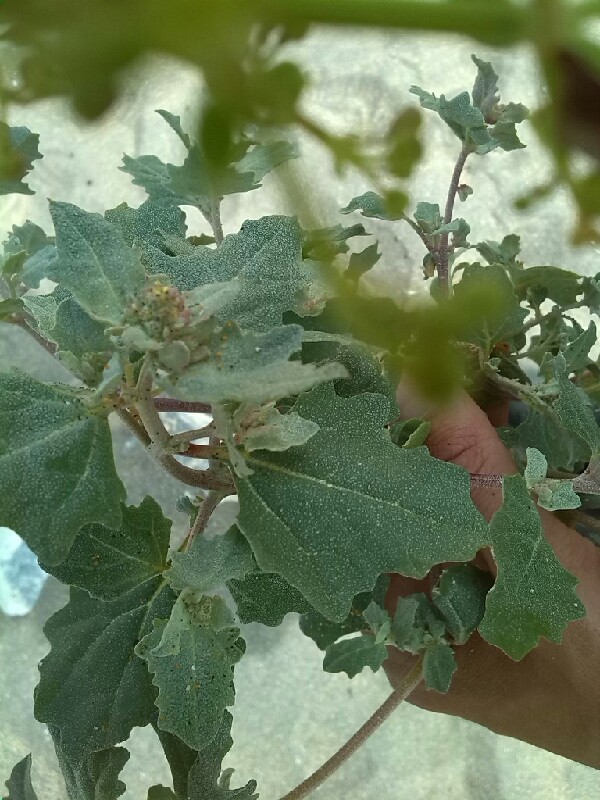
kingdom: Plantae
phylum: Tracheophyta
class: Magnoliopsida
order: Caryophyllales
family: Amaranthaceae
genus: Atriplex
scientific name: Atriplex laciniata
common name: Frosted orache
